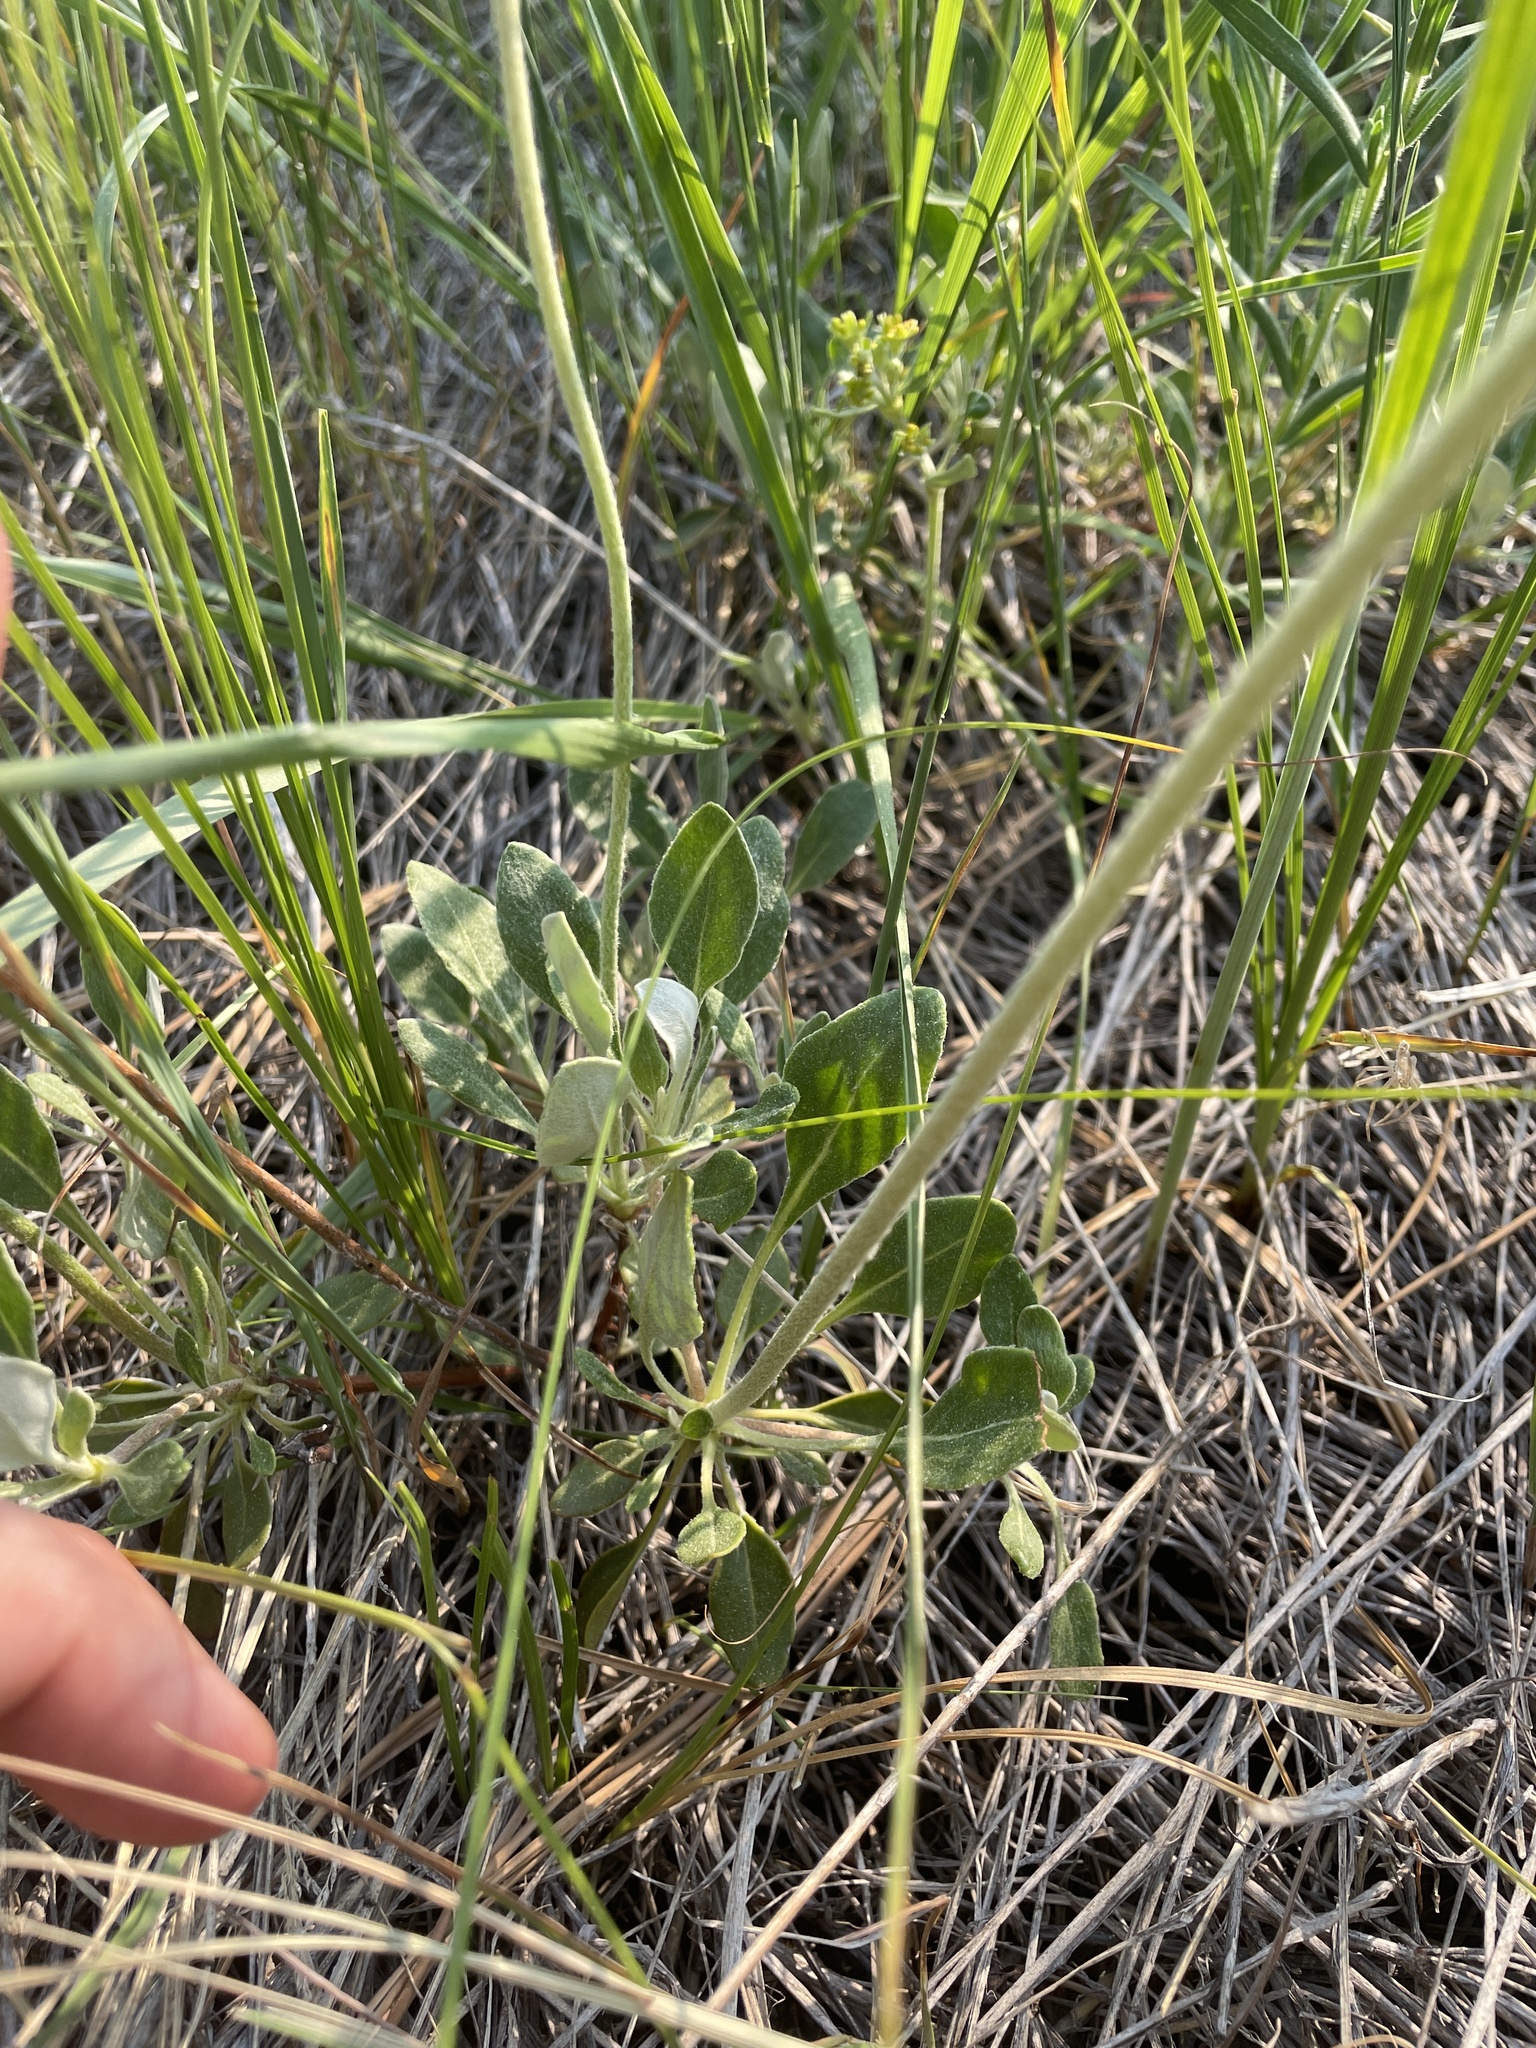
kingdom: Plantae
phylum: Tracheophyta
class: Magnoliopsida
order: Caryophyllales
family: Polygonaceae
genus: Eriogonum
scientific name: Eriogonum umbellatum
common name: Sulfur-buckwheat
